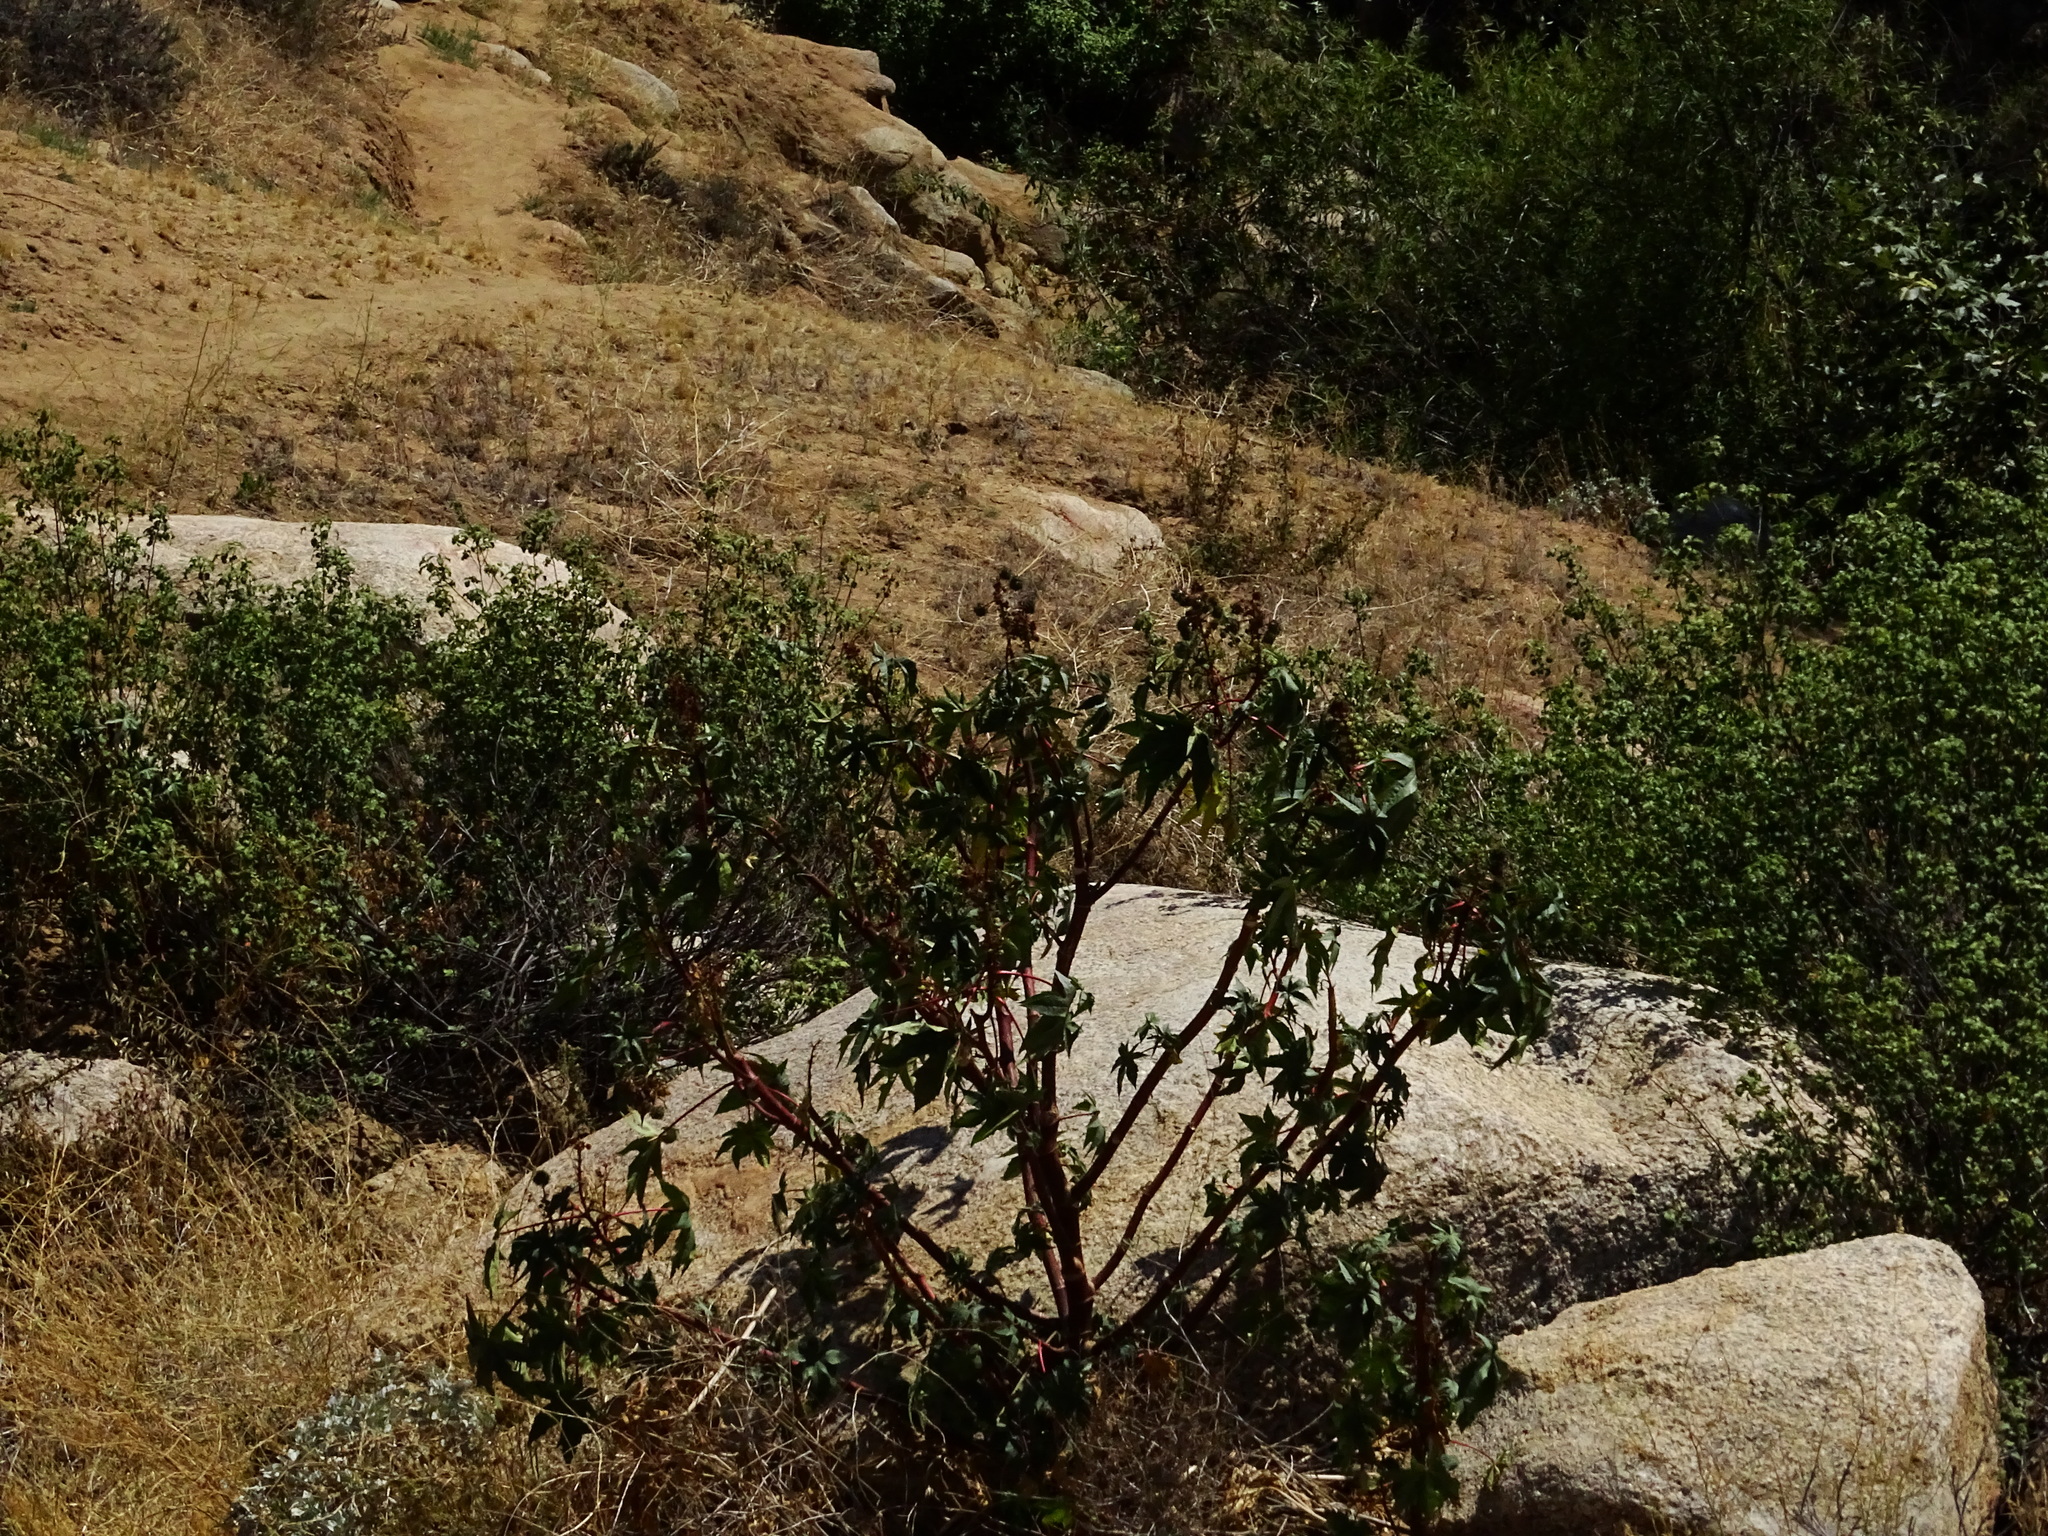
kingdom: Plantae
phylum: Tracheophyta
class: Magnoliopsida
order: Malpighiales
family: Euphorbiaceae
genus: Ricinus
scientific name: Ricinus communis
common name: Castor-oil-plant
